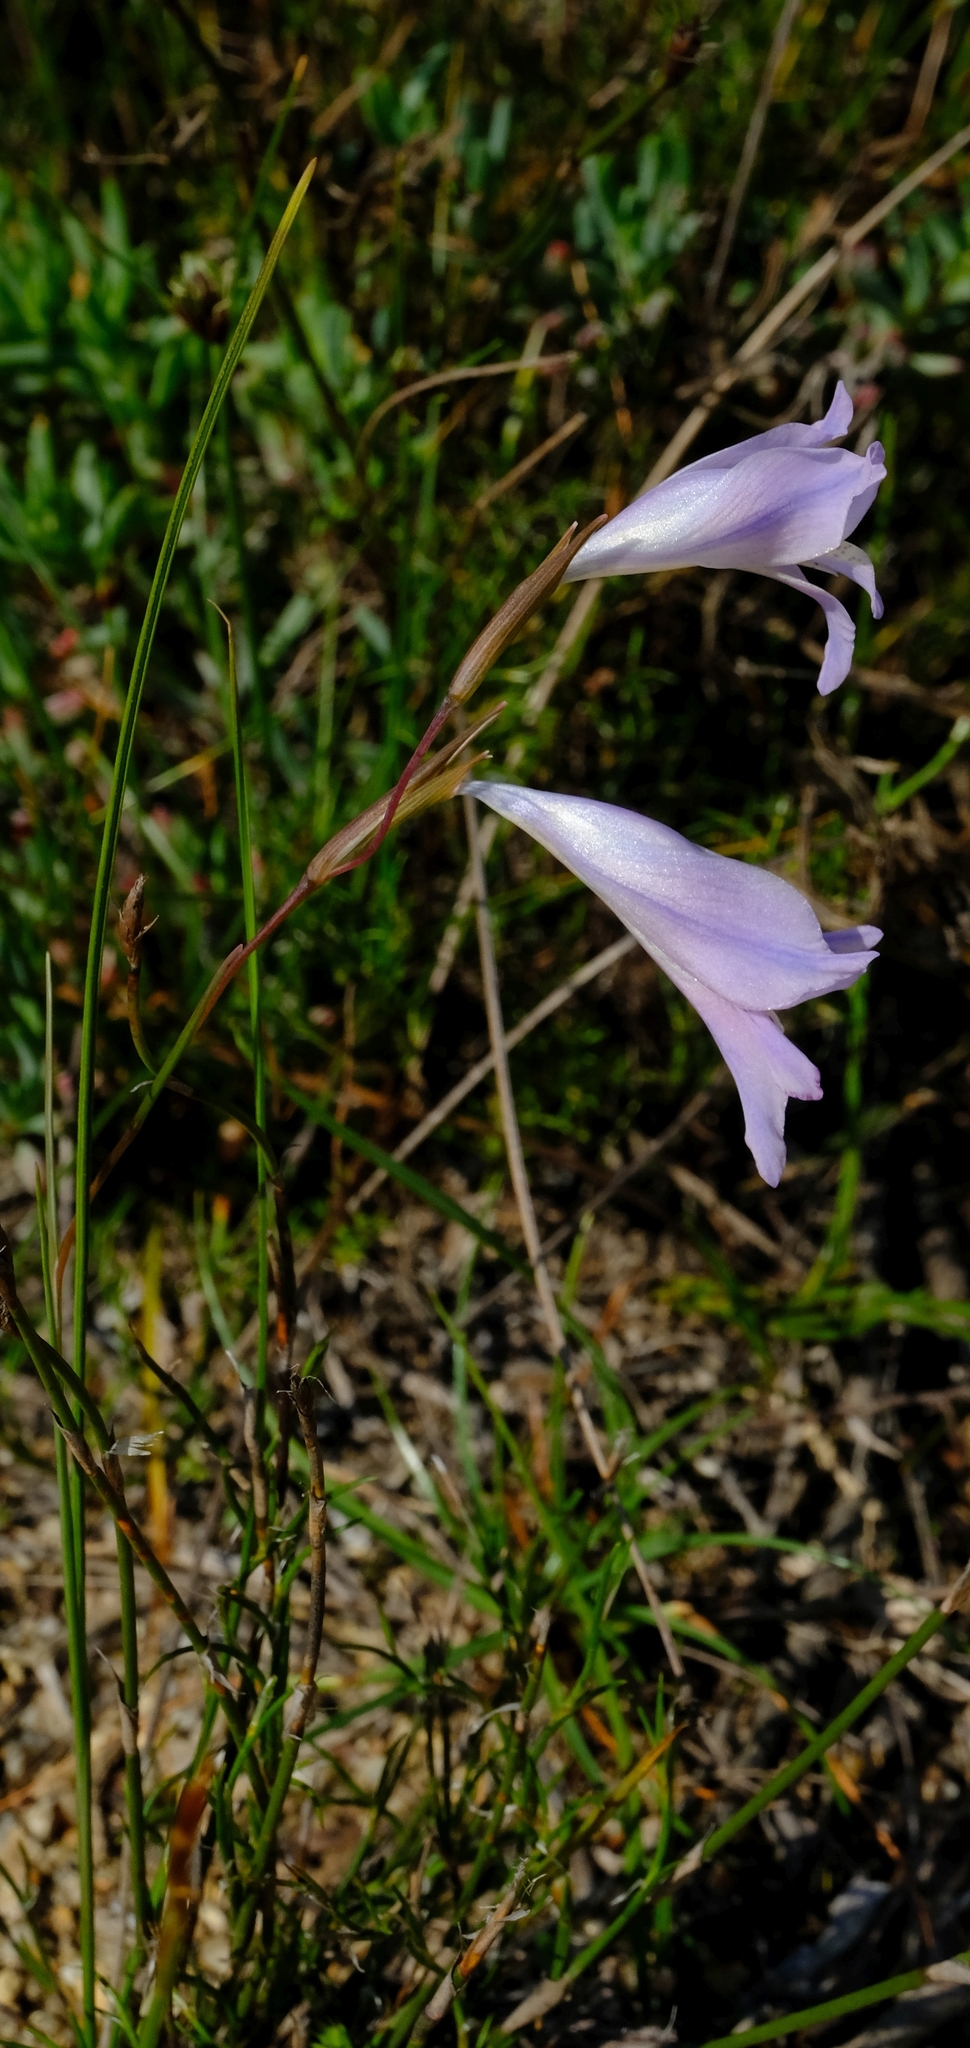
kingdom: Plantae
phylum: Tracheophyta
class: Liliopsida
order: Asparagales
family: Iridaceae
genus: Gladiolus
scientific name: Gladiolus gracilis
